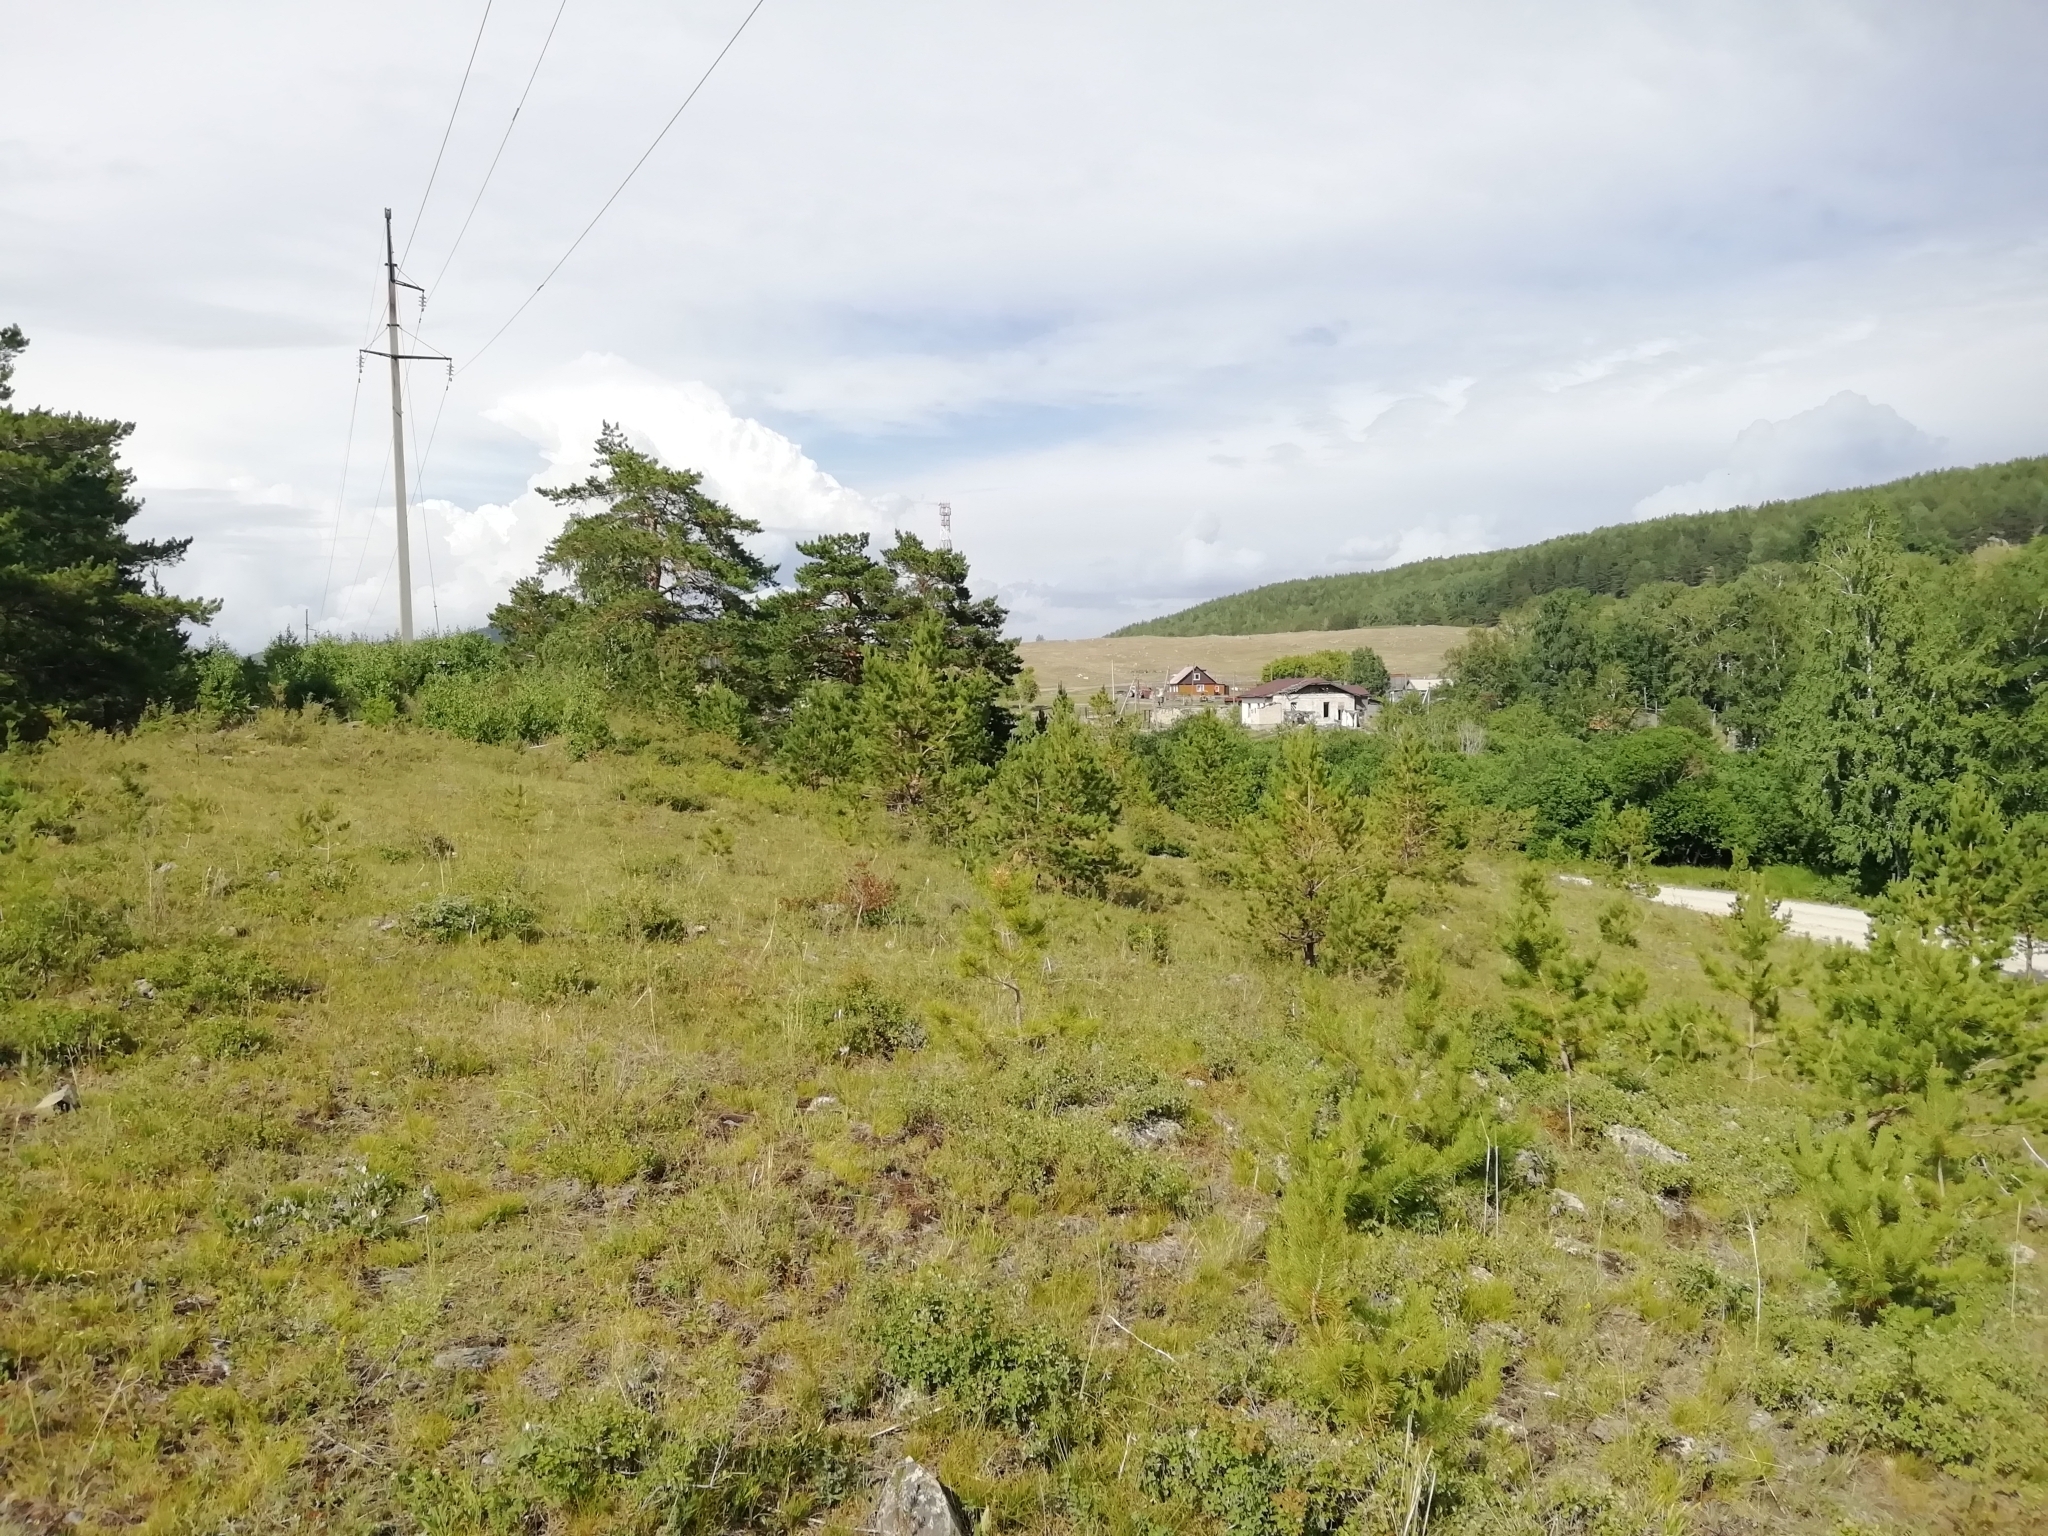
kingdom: Animalia
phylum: Arthropoda
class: Insecta
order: Orthoptera
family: Acrididae
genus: Gomphocerus
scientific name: Gomphocerus sibiricus
